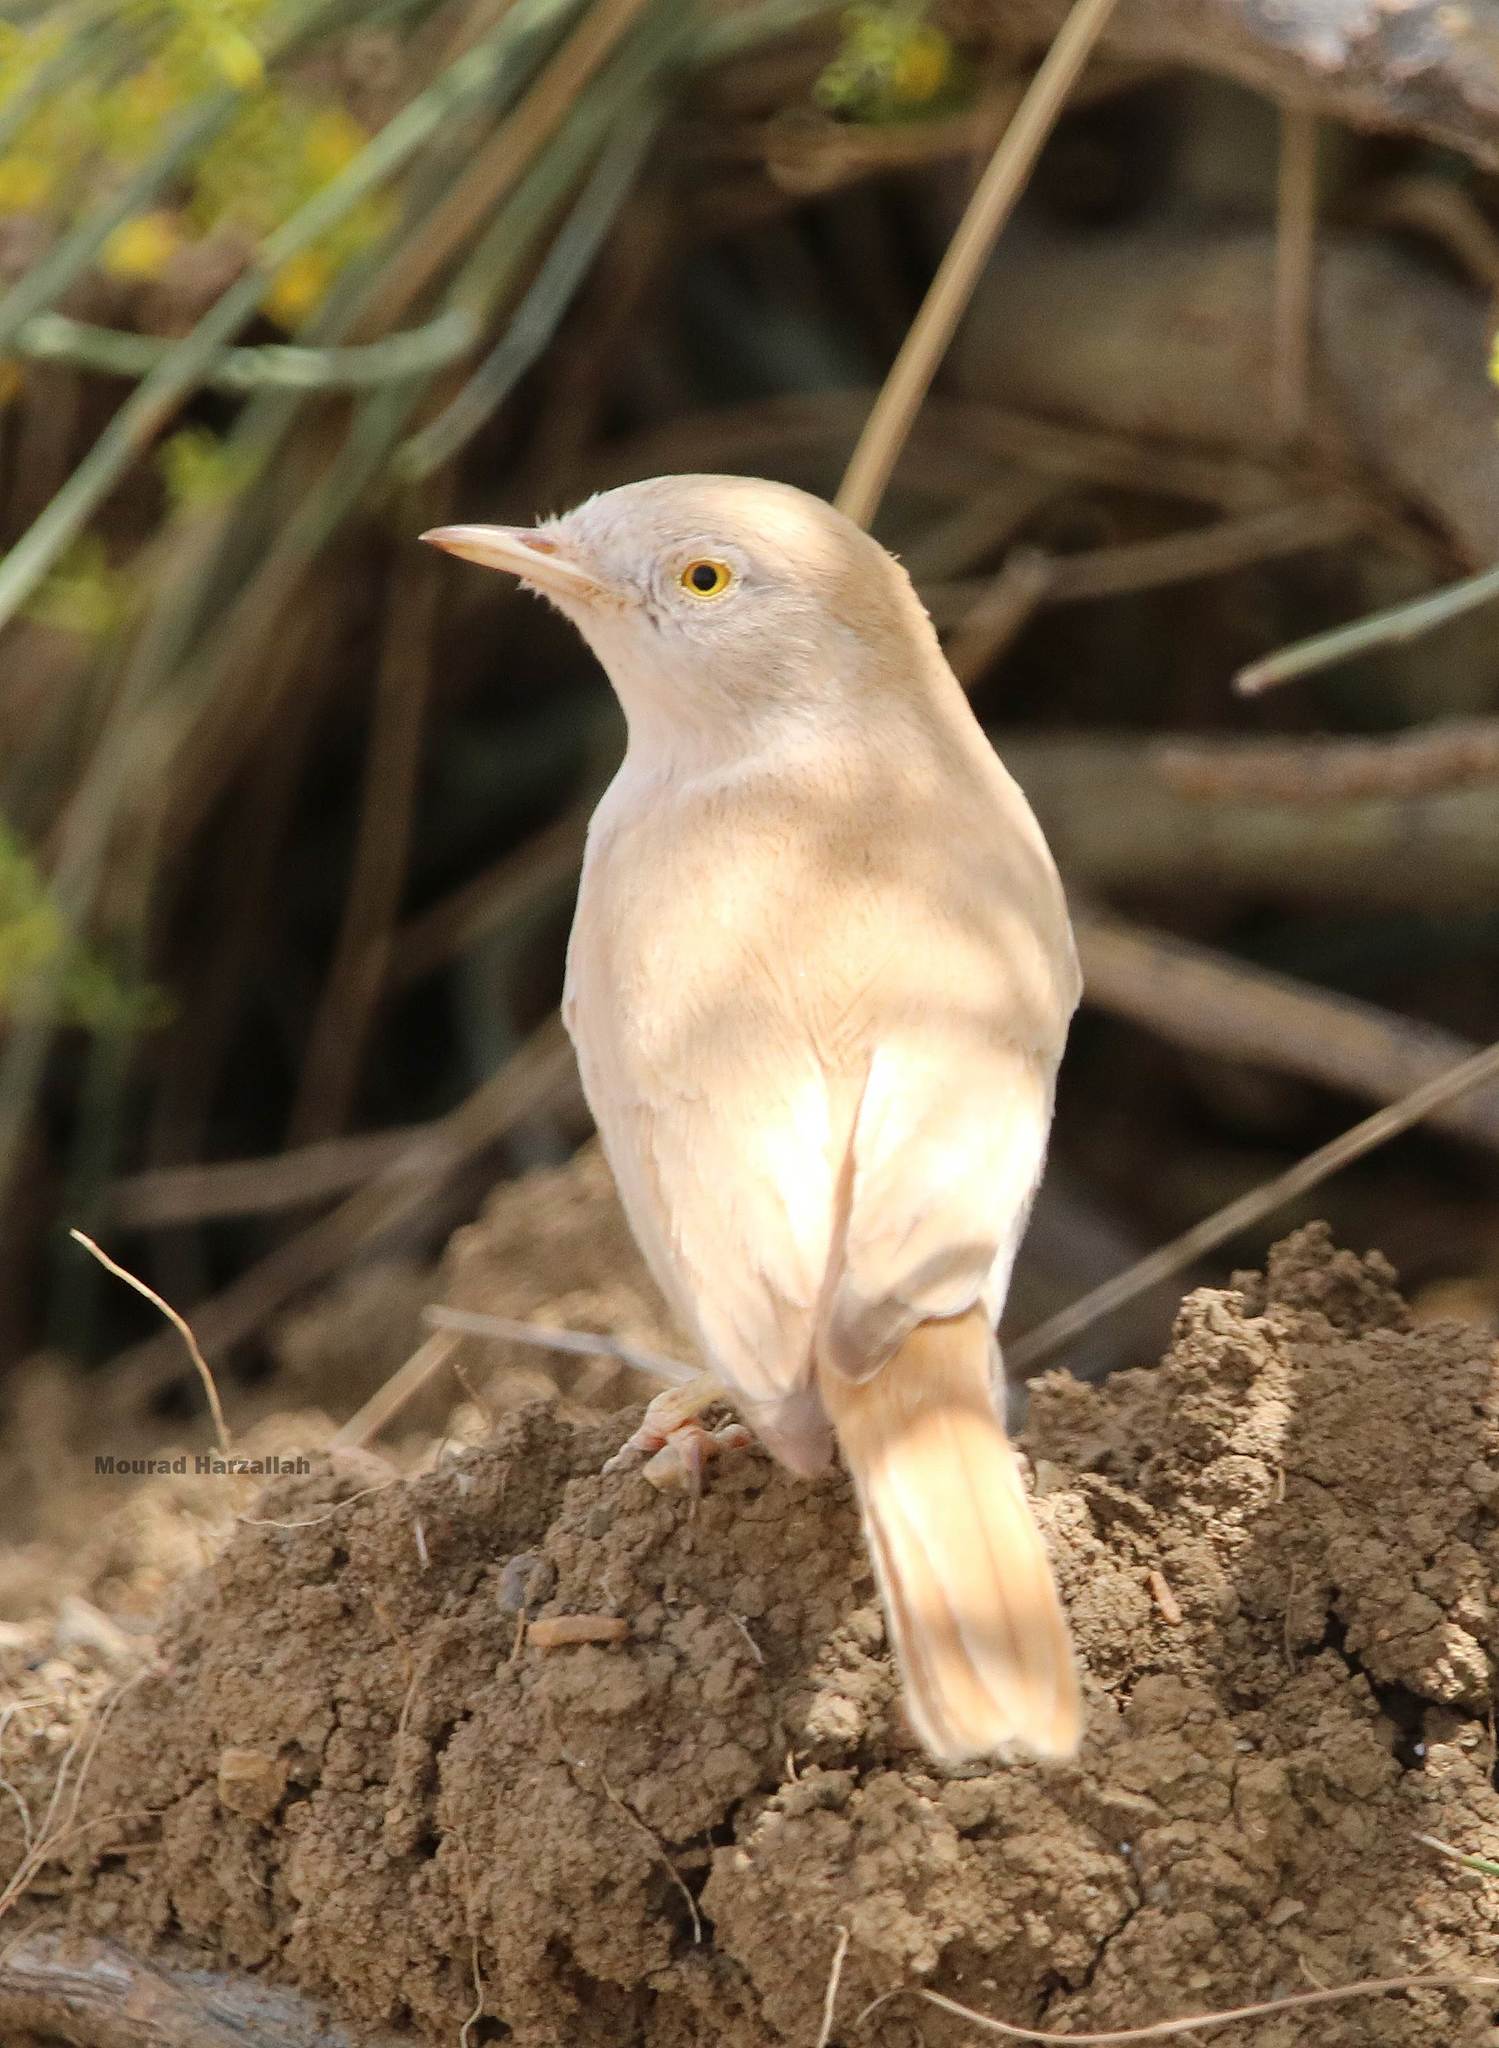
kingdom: Animalia
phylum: Chordata
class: Aves
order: Passeriformes
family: Sylviidae
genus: Sylvia
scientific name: Sylvia deserti
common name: African desert warbler
